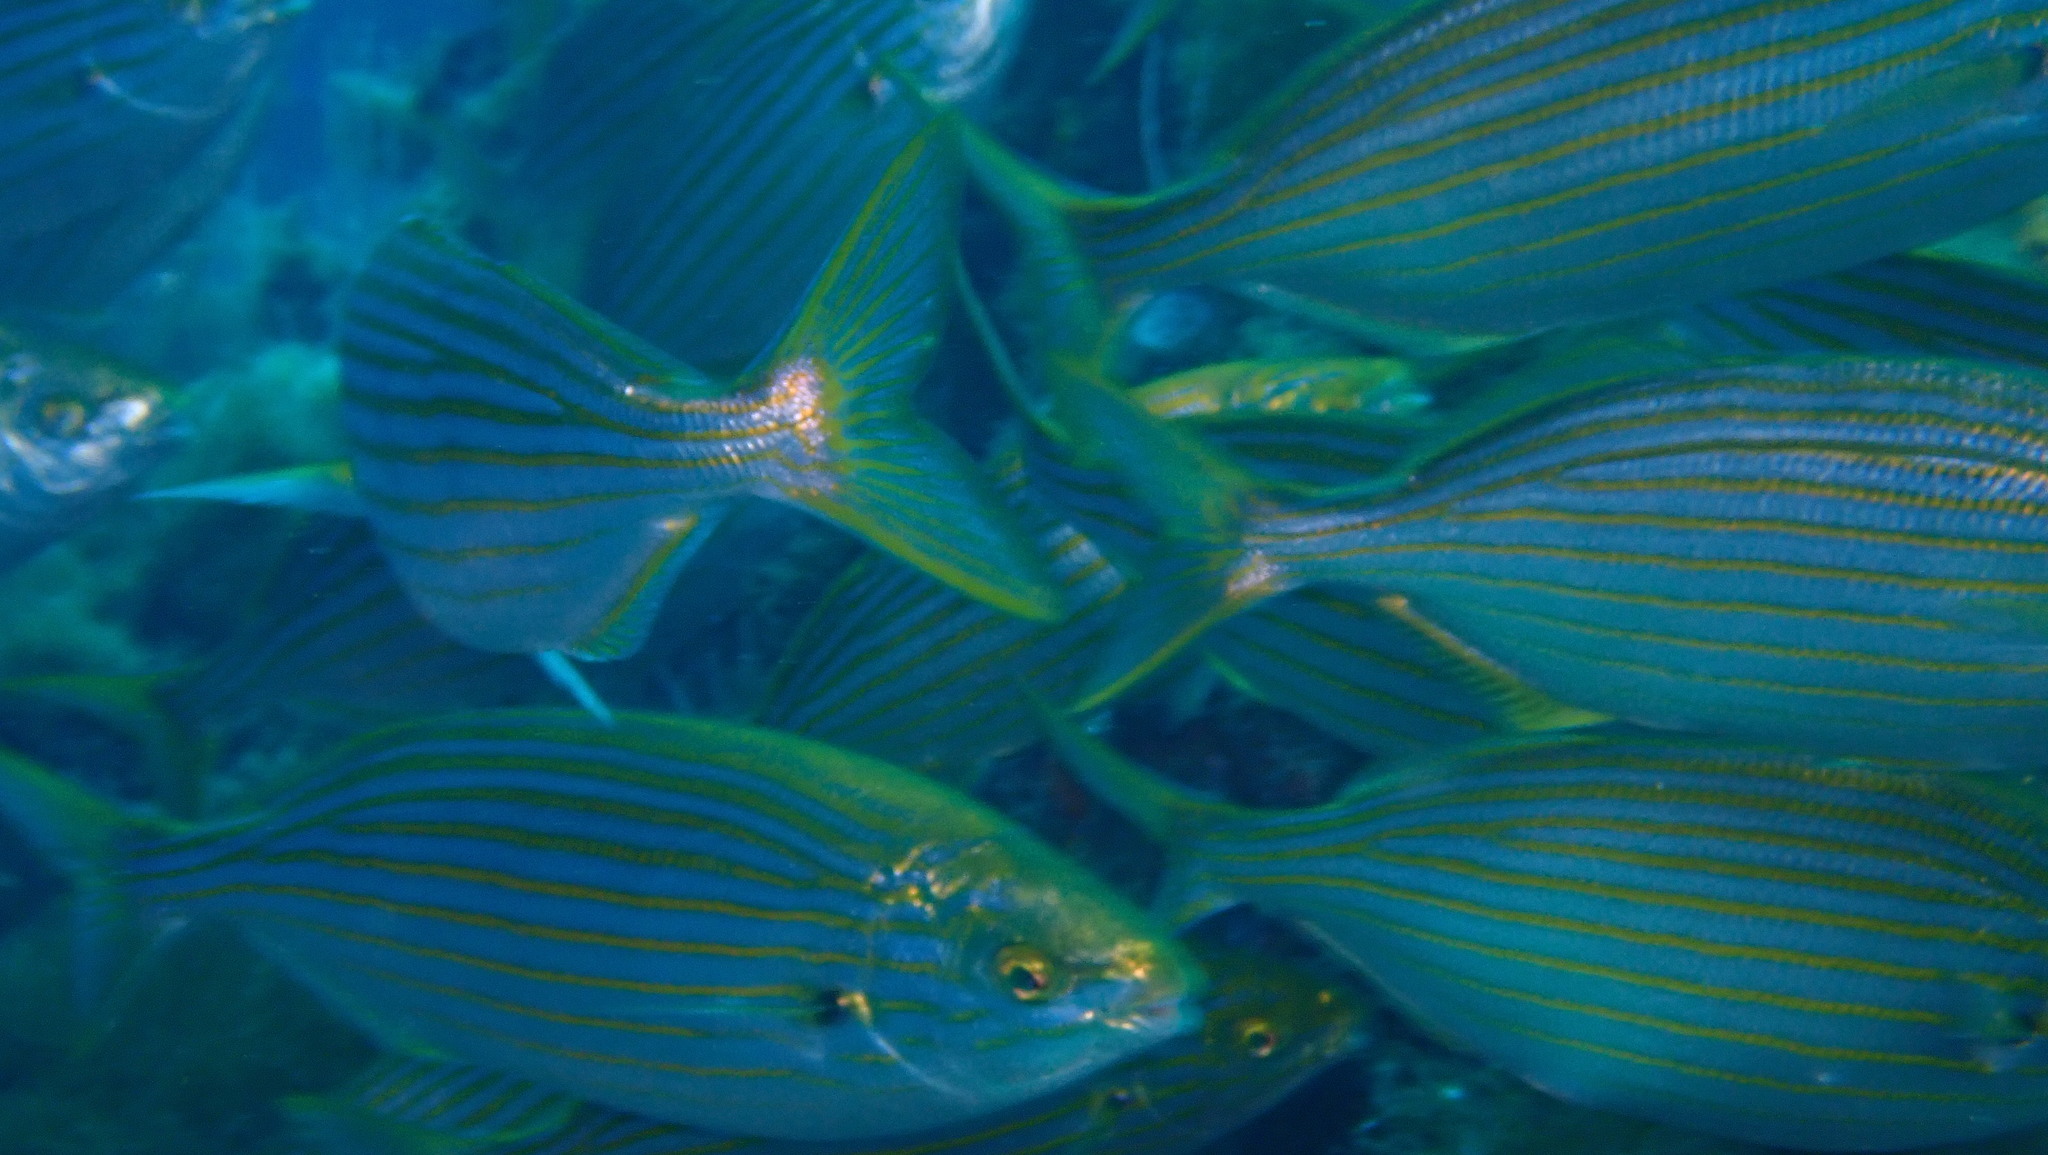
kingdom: Animalia
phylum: Chordata
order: Perciformes
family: Sparidae
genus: Sarpa
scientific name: Sarpa salpa
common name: Salema
